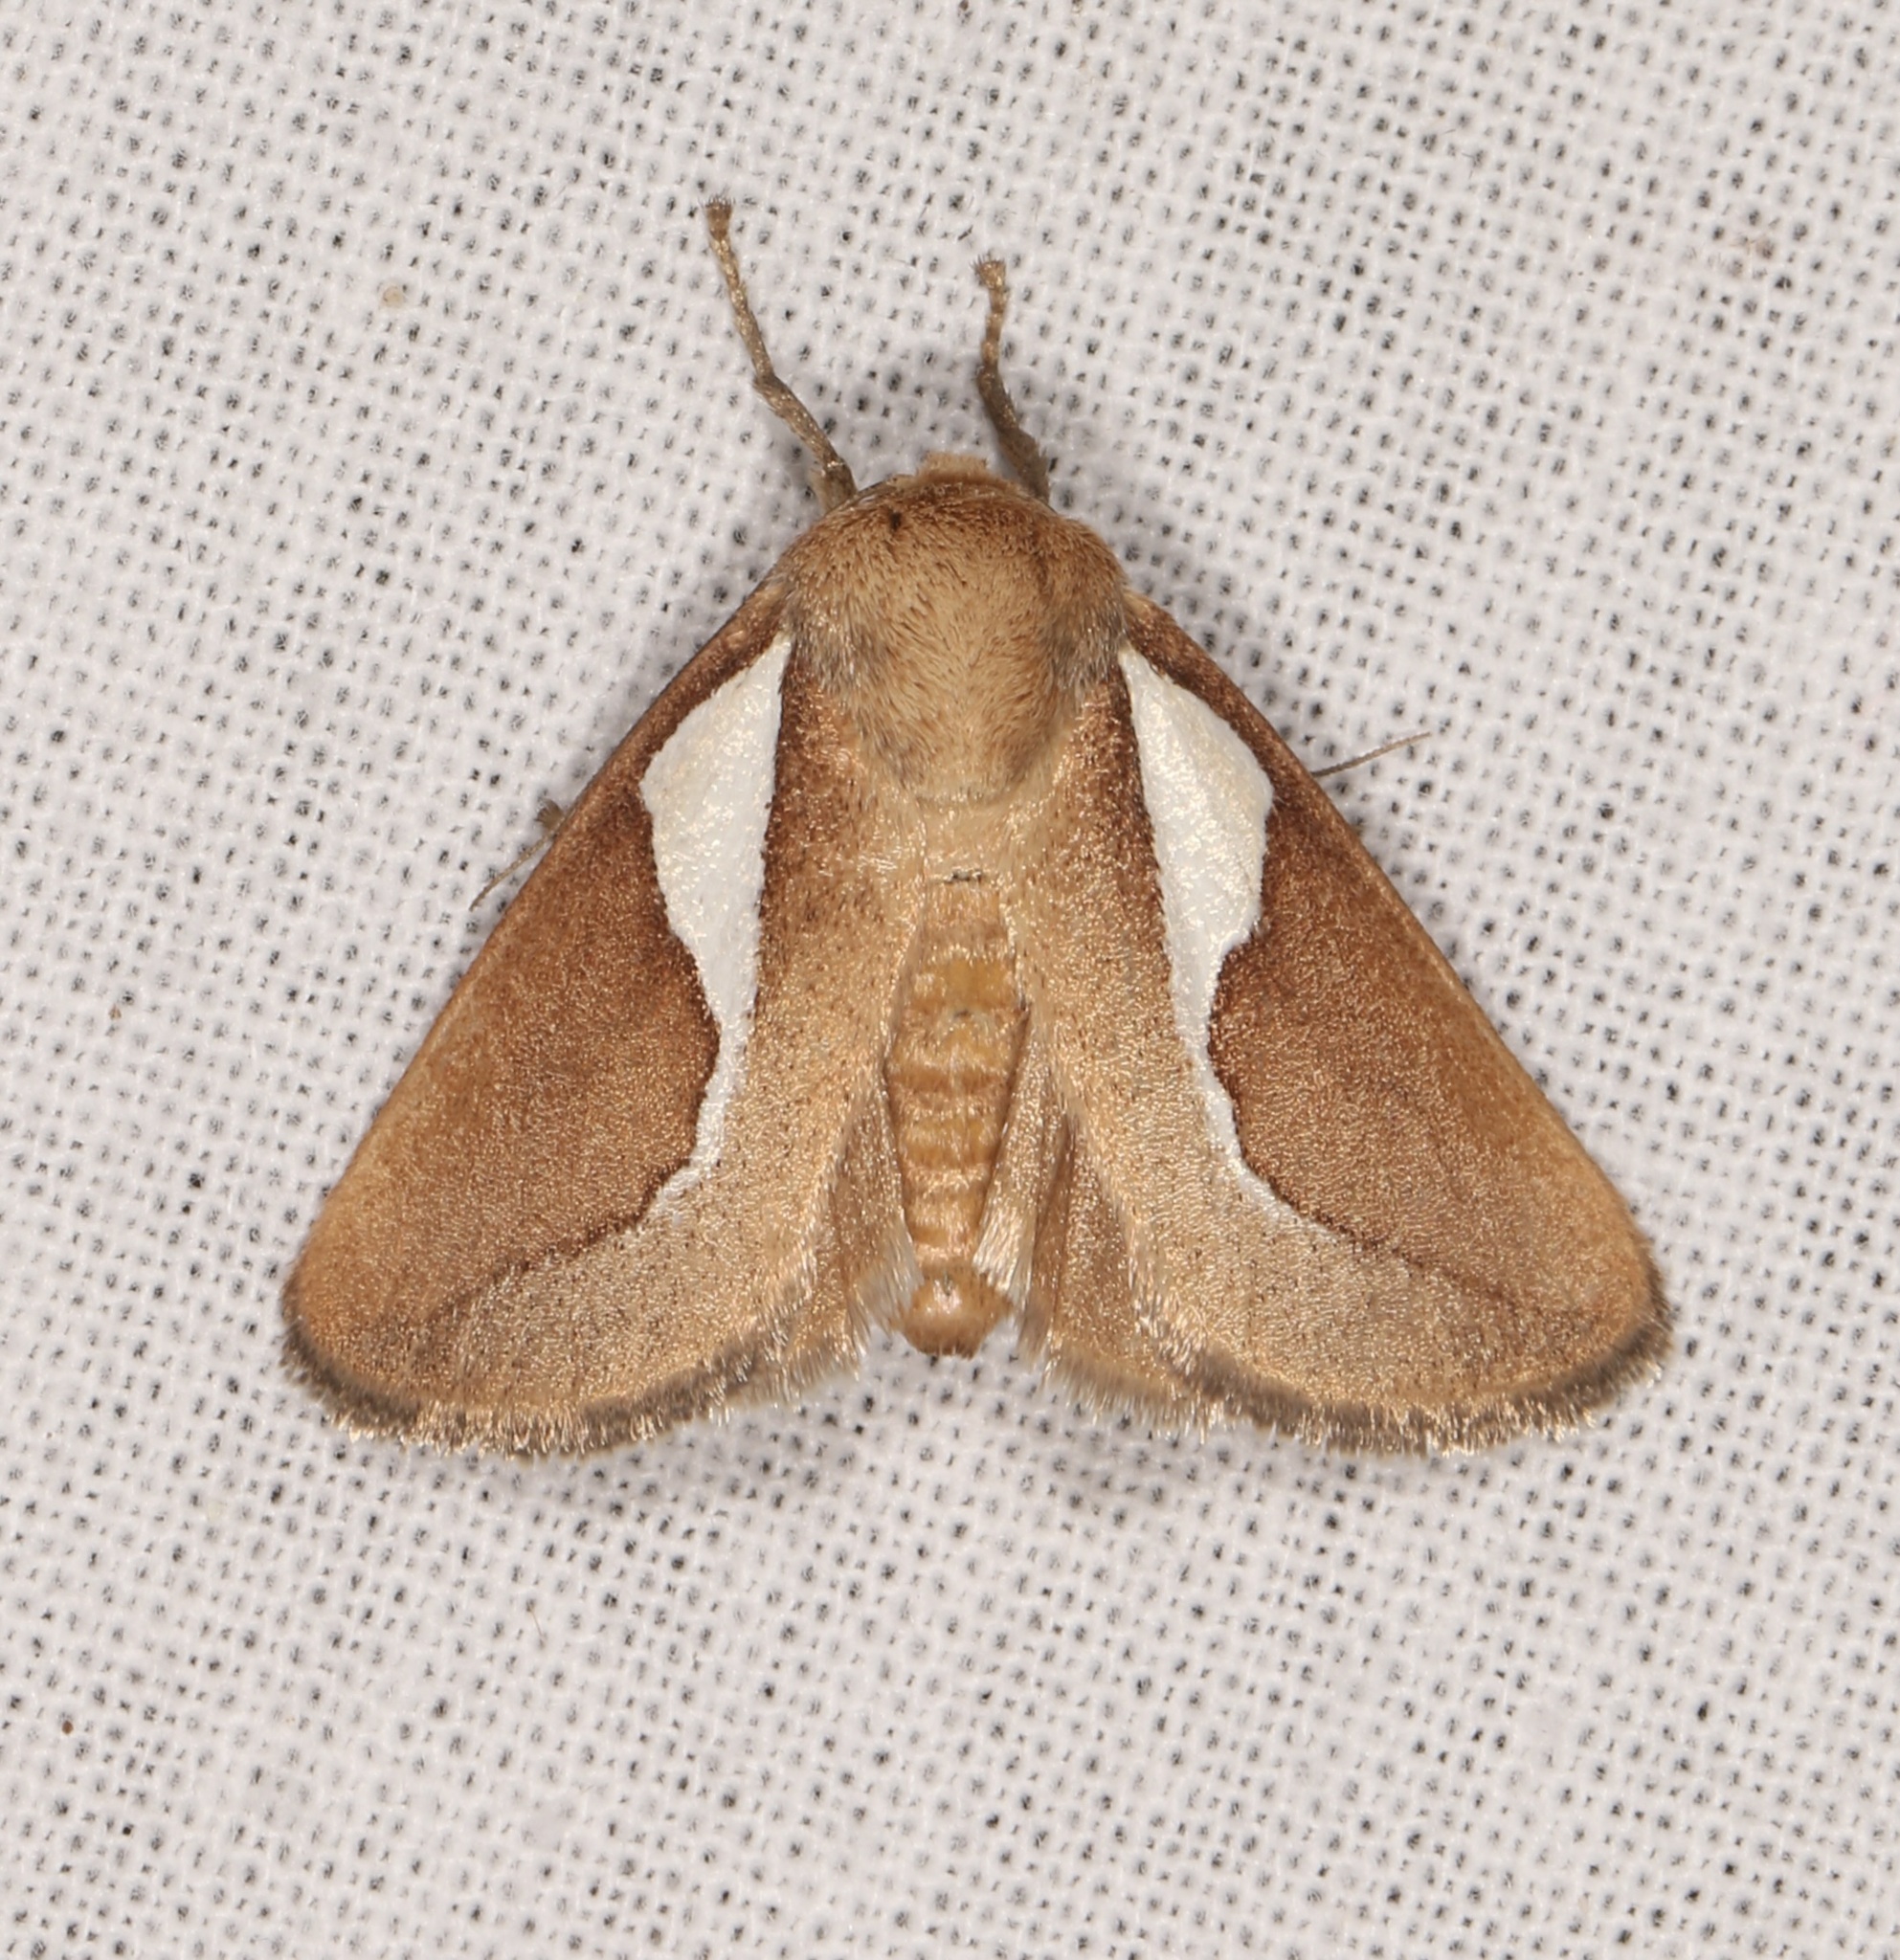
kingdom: Animalia
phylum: Arthropoda
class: Insecta
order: Lepidoptera
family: Limacodidae
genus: Prolimacodes
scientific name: Prolimacodes trigona
